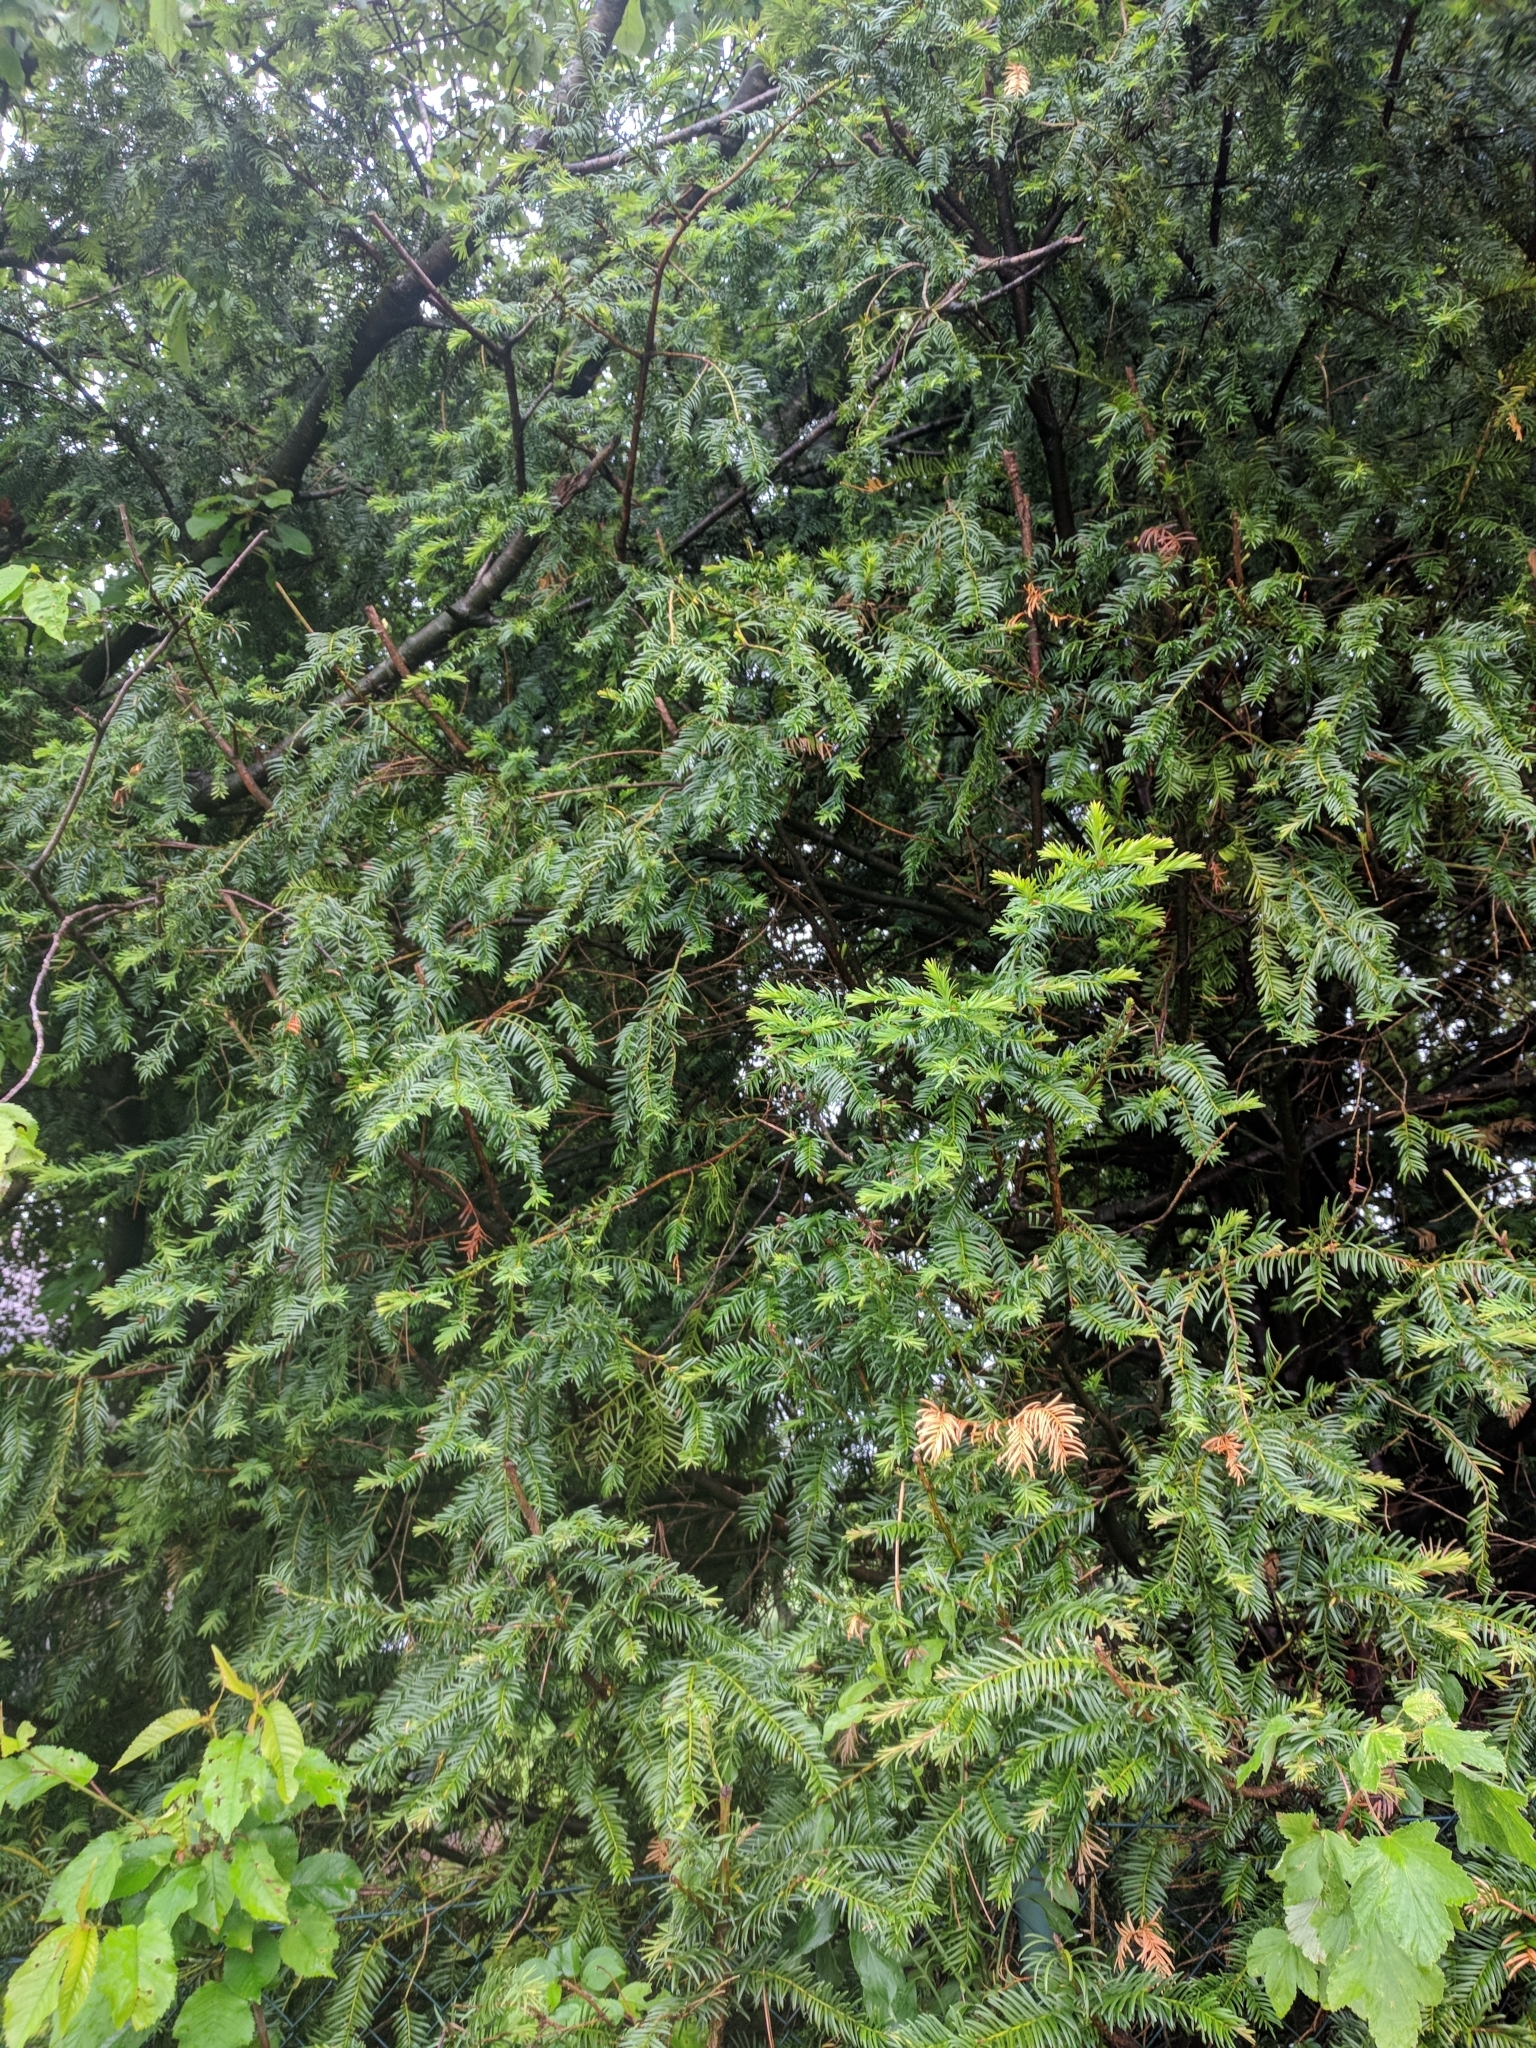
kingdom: Plantae
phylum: Tracheophyta
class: Pinopsida
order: Pinales
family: Taxaceae
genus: Taxus
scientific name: Taxus baccata
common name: Yew
